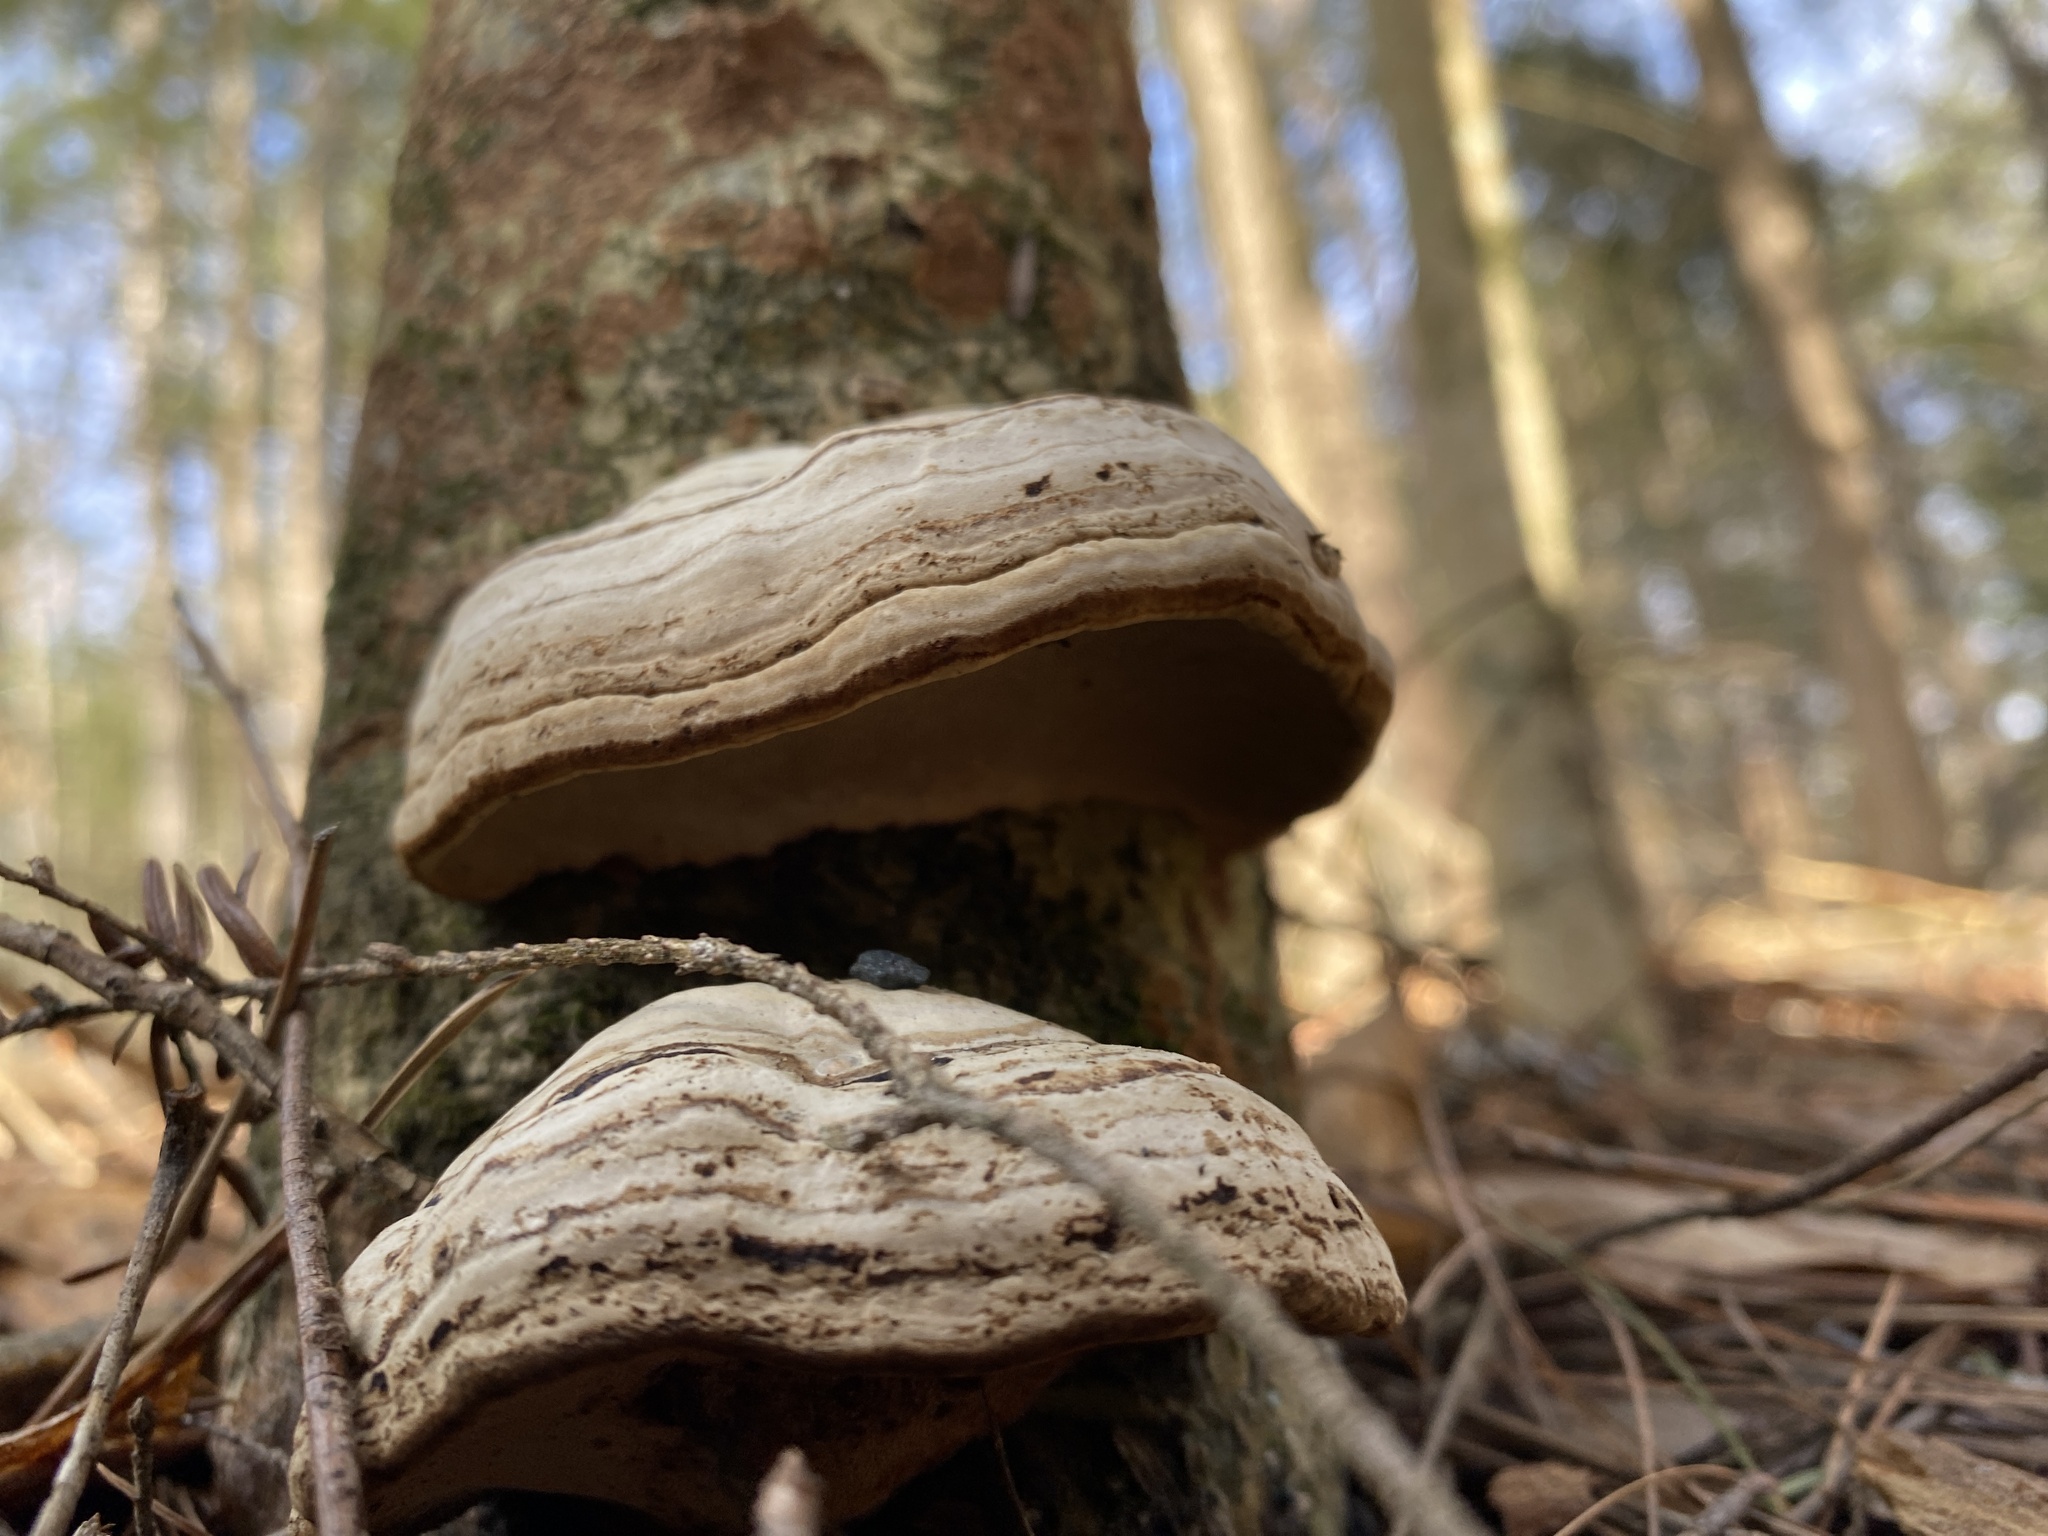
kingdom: Fungi
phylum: Basidiomycota
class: Agaricomycetes
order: Polyporales
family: Polyporaceae
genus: Fomes
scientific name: Fomes fomentarius
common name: Hoof fungus
